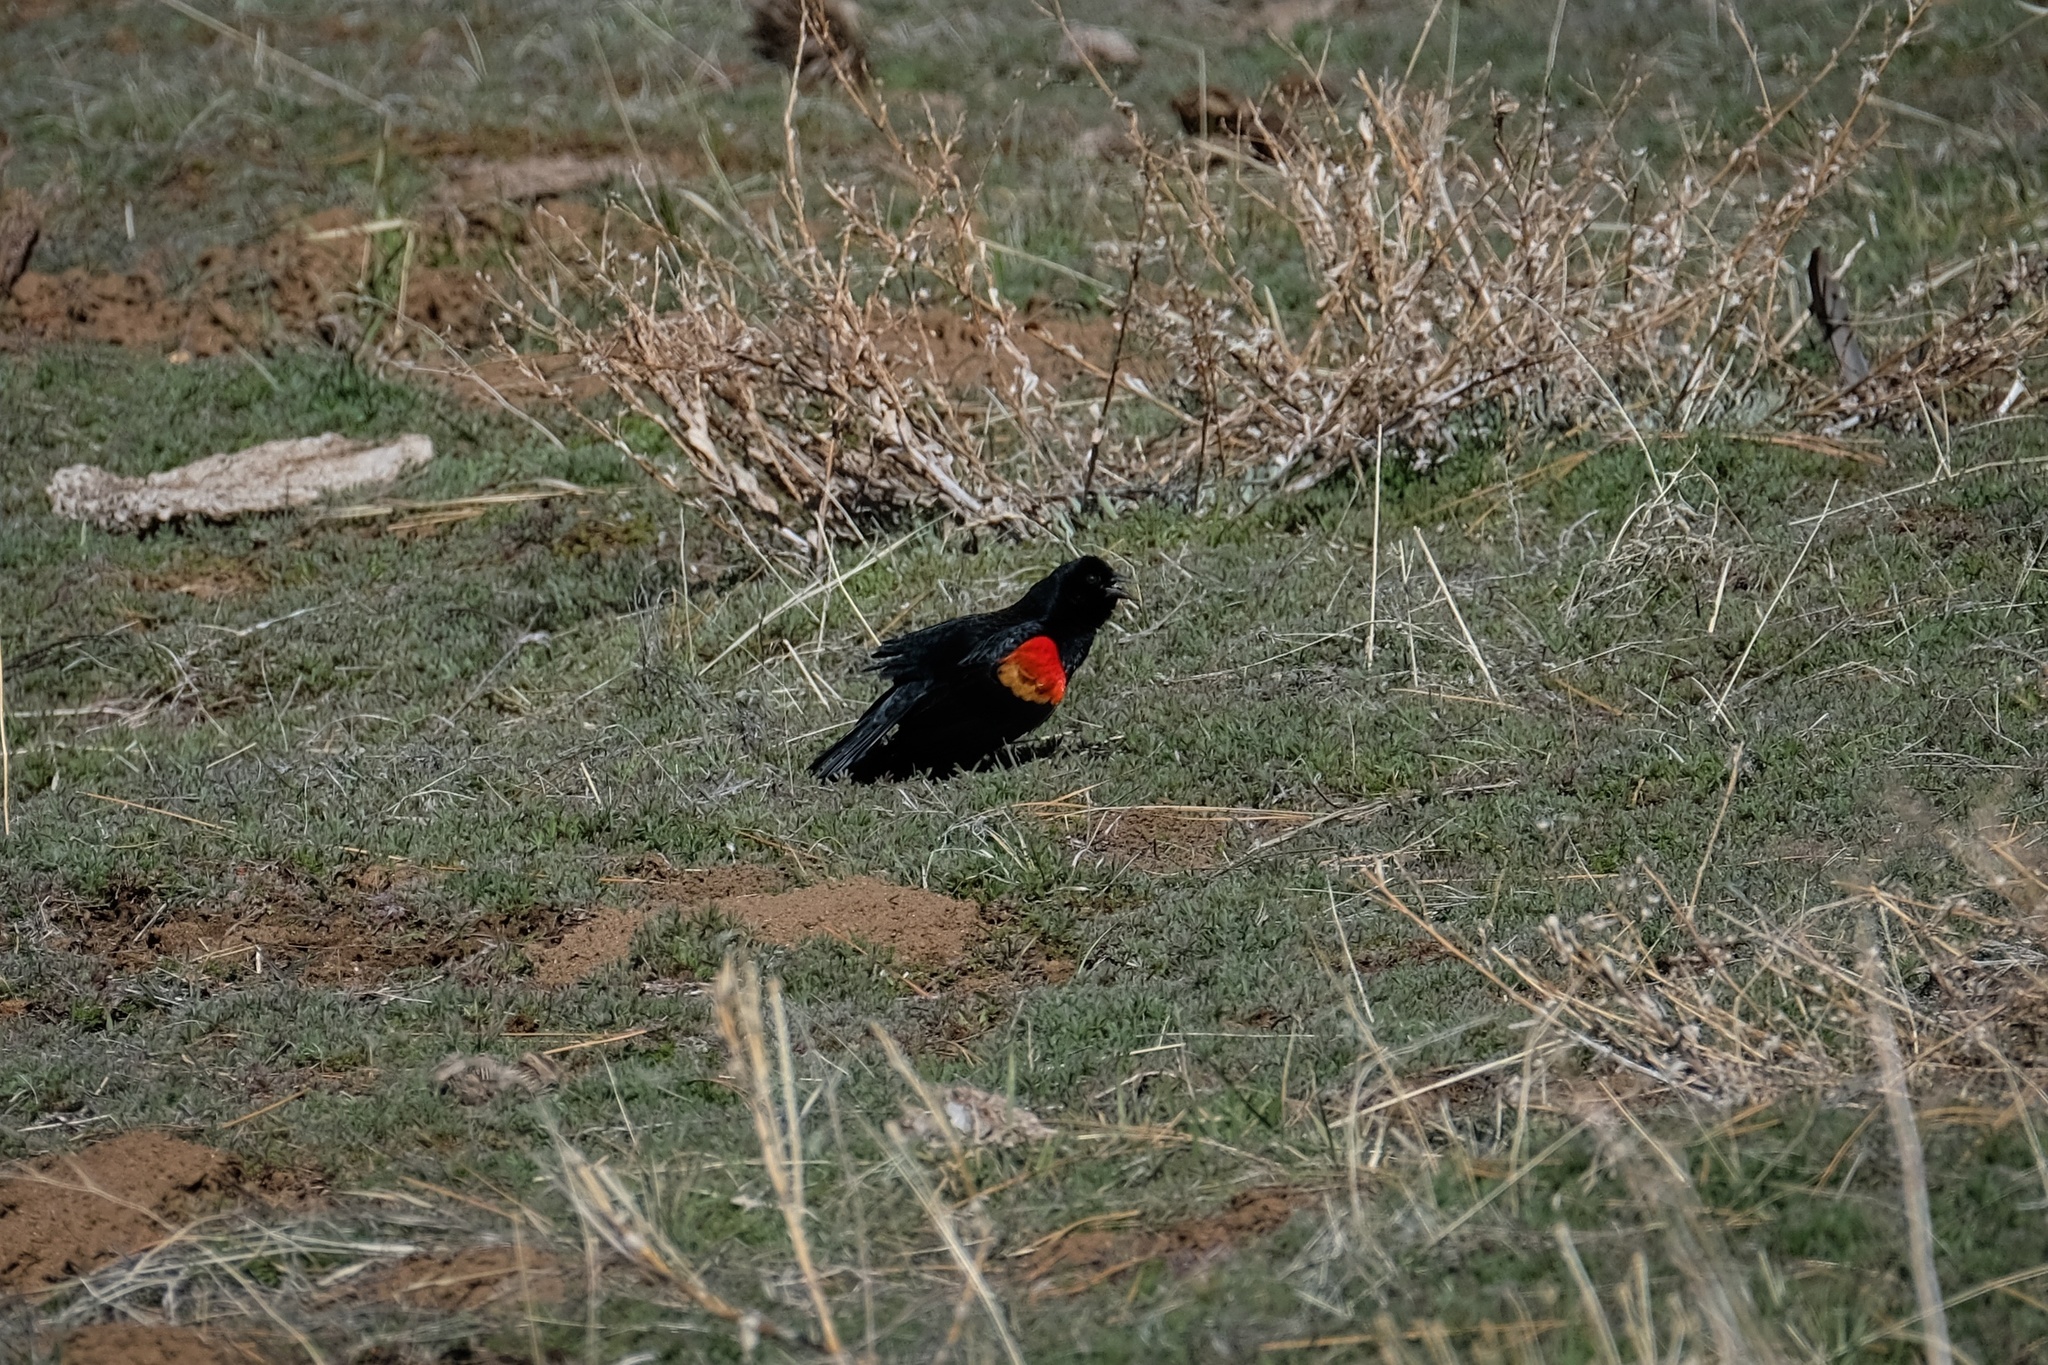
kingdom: Animalia
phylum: Chordata
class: Aves
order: Passeriformes
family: Icteridae
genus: Agelaius
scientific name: Agelaius phoeniceus
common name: Red-winged blackbird
